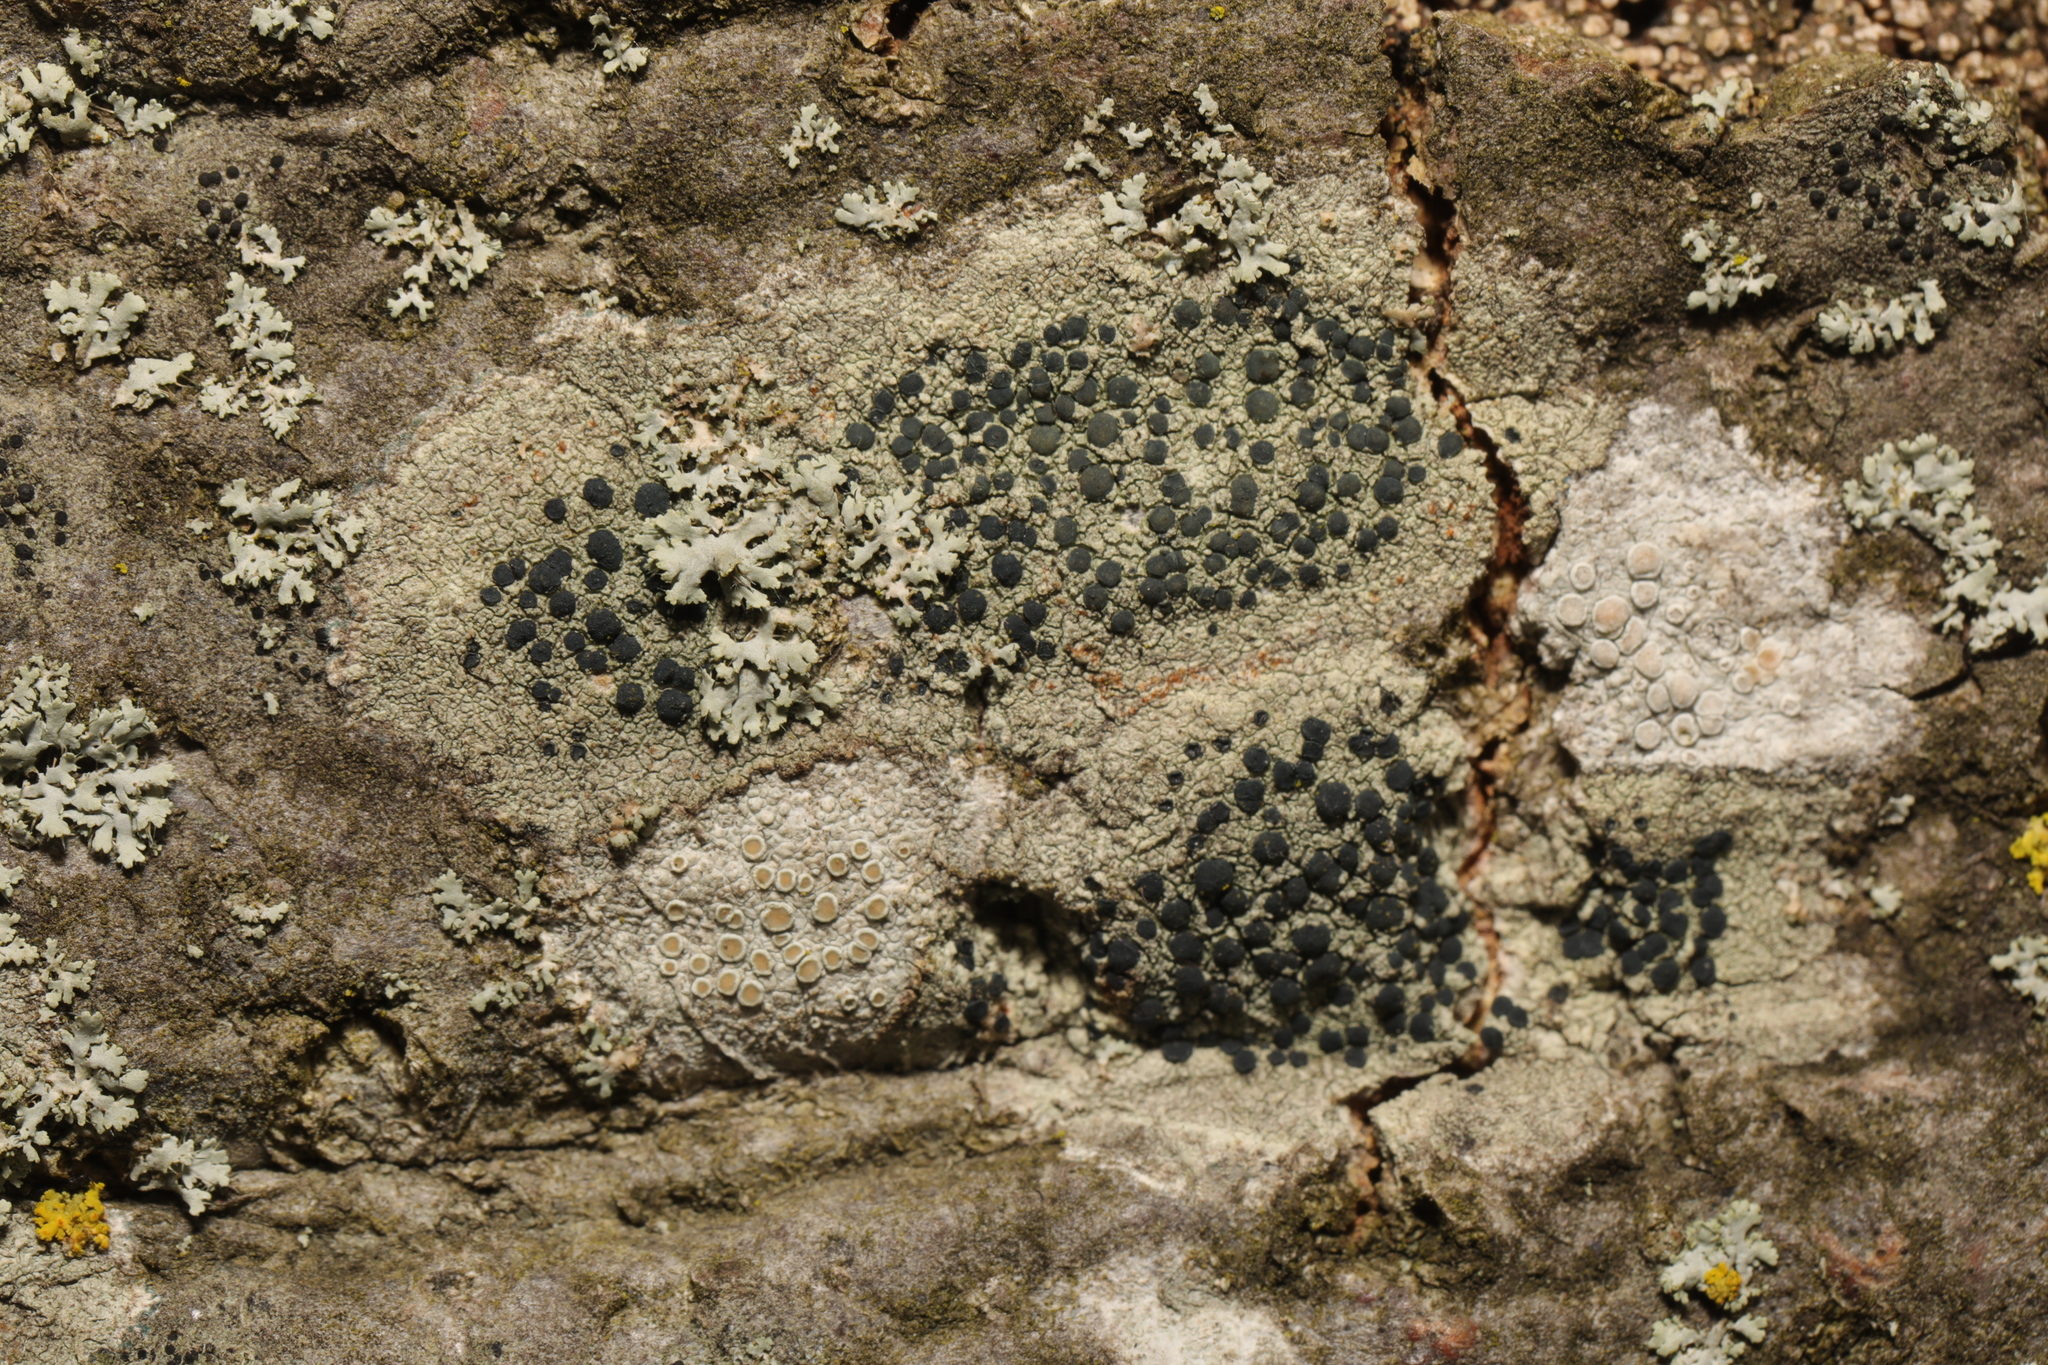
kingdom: Fungi
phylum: Ascomycota
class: Lecanoromycetes
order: Lecanorales
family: Lecanoraceae
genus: Lecidella
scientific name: Lecidella elaeochroma
